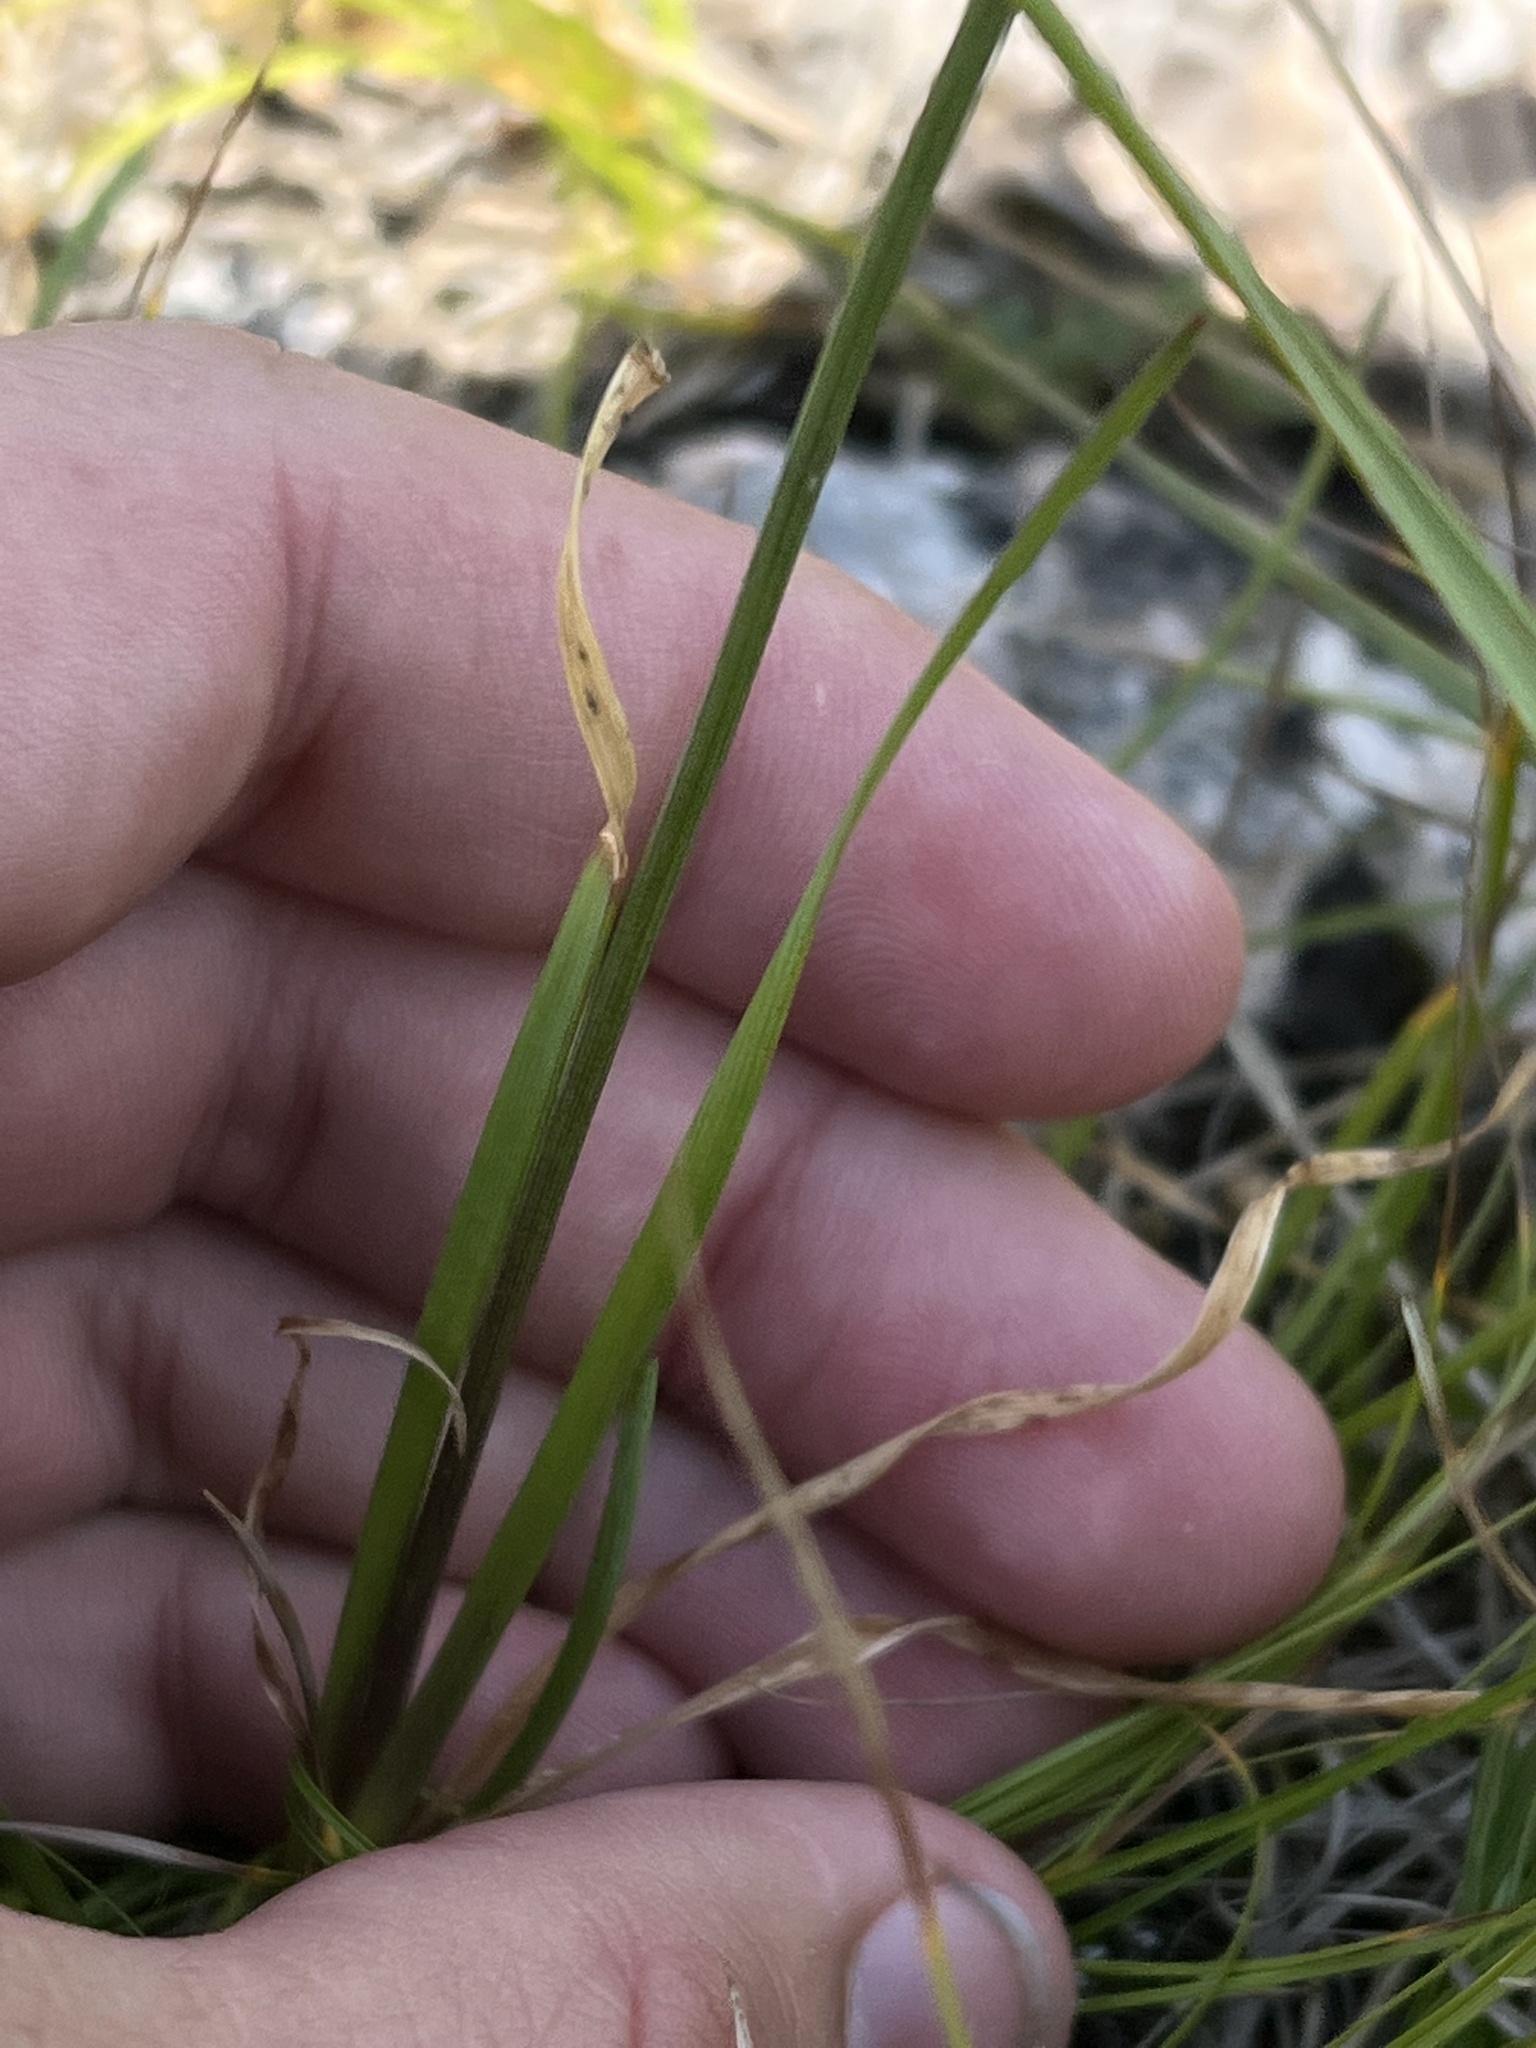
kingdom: Plantae
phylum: Tracheophyta
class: Liliopsida
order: Asparagales
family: Amaryllidaceae
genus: Allium
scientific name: Allium lusitanicum
